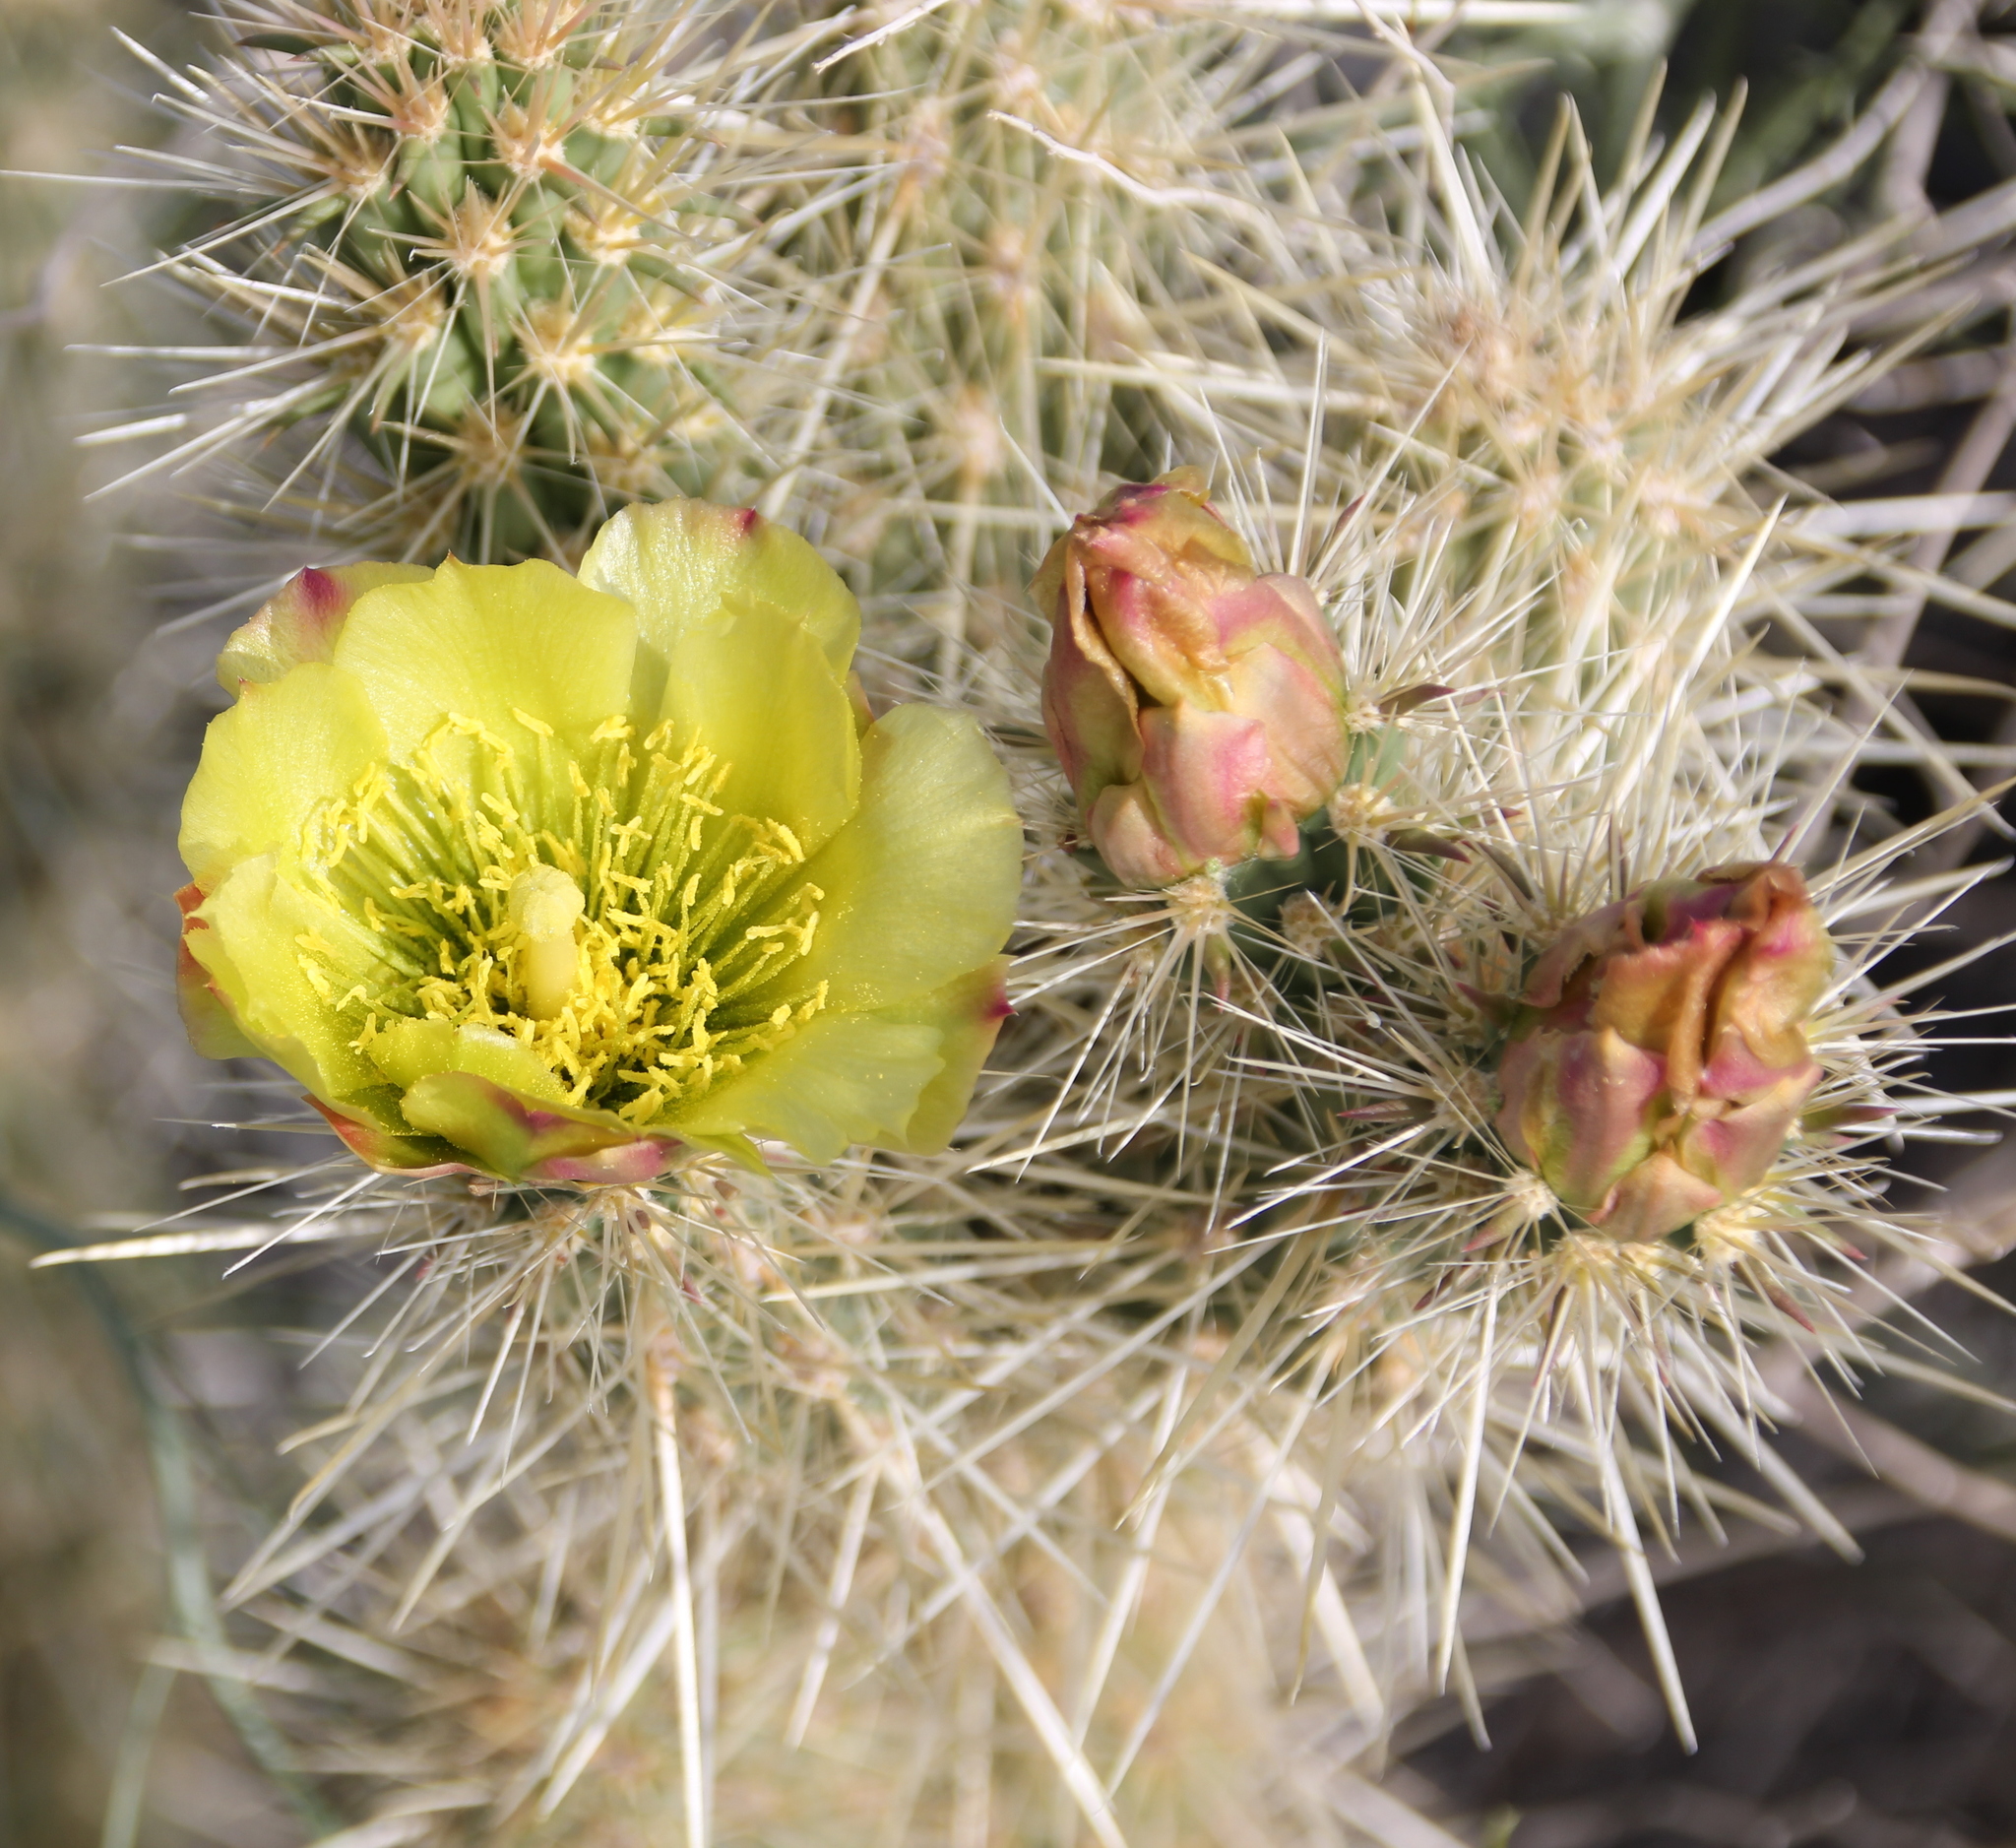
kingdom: Plantae
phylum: Tracheophyta
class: Magnoliopsida
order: Caryophyllales
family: Cactaceae
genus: Cylindropuntia
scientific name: Cylindropuntia ganderi
